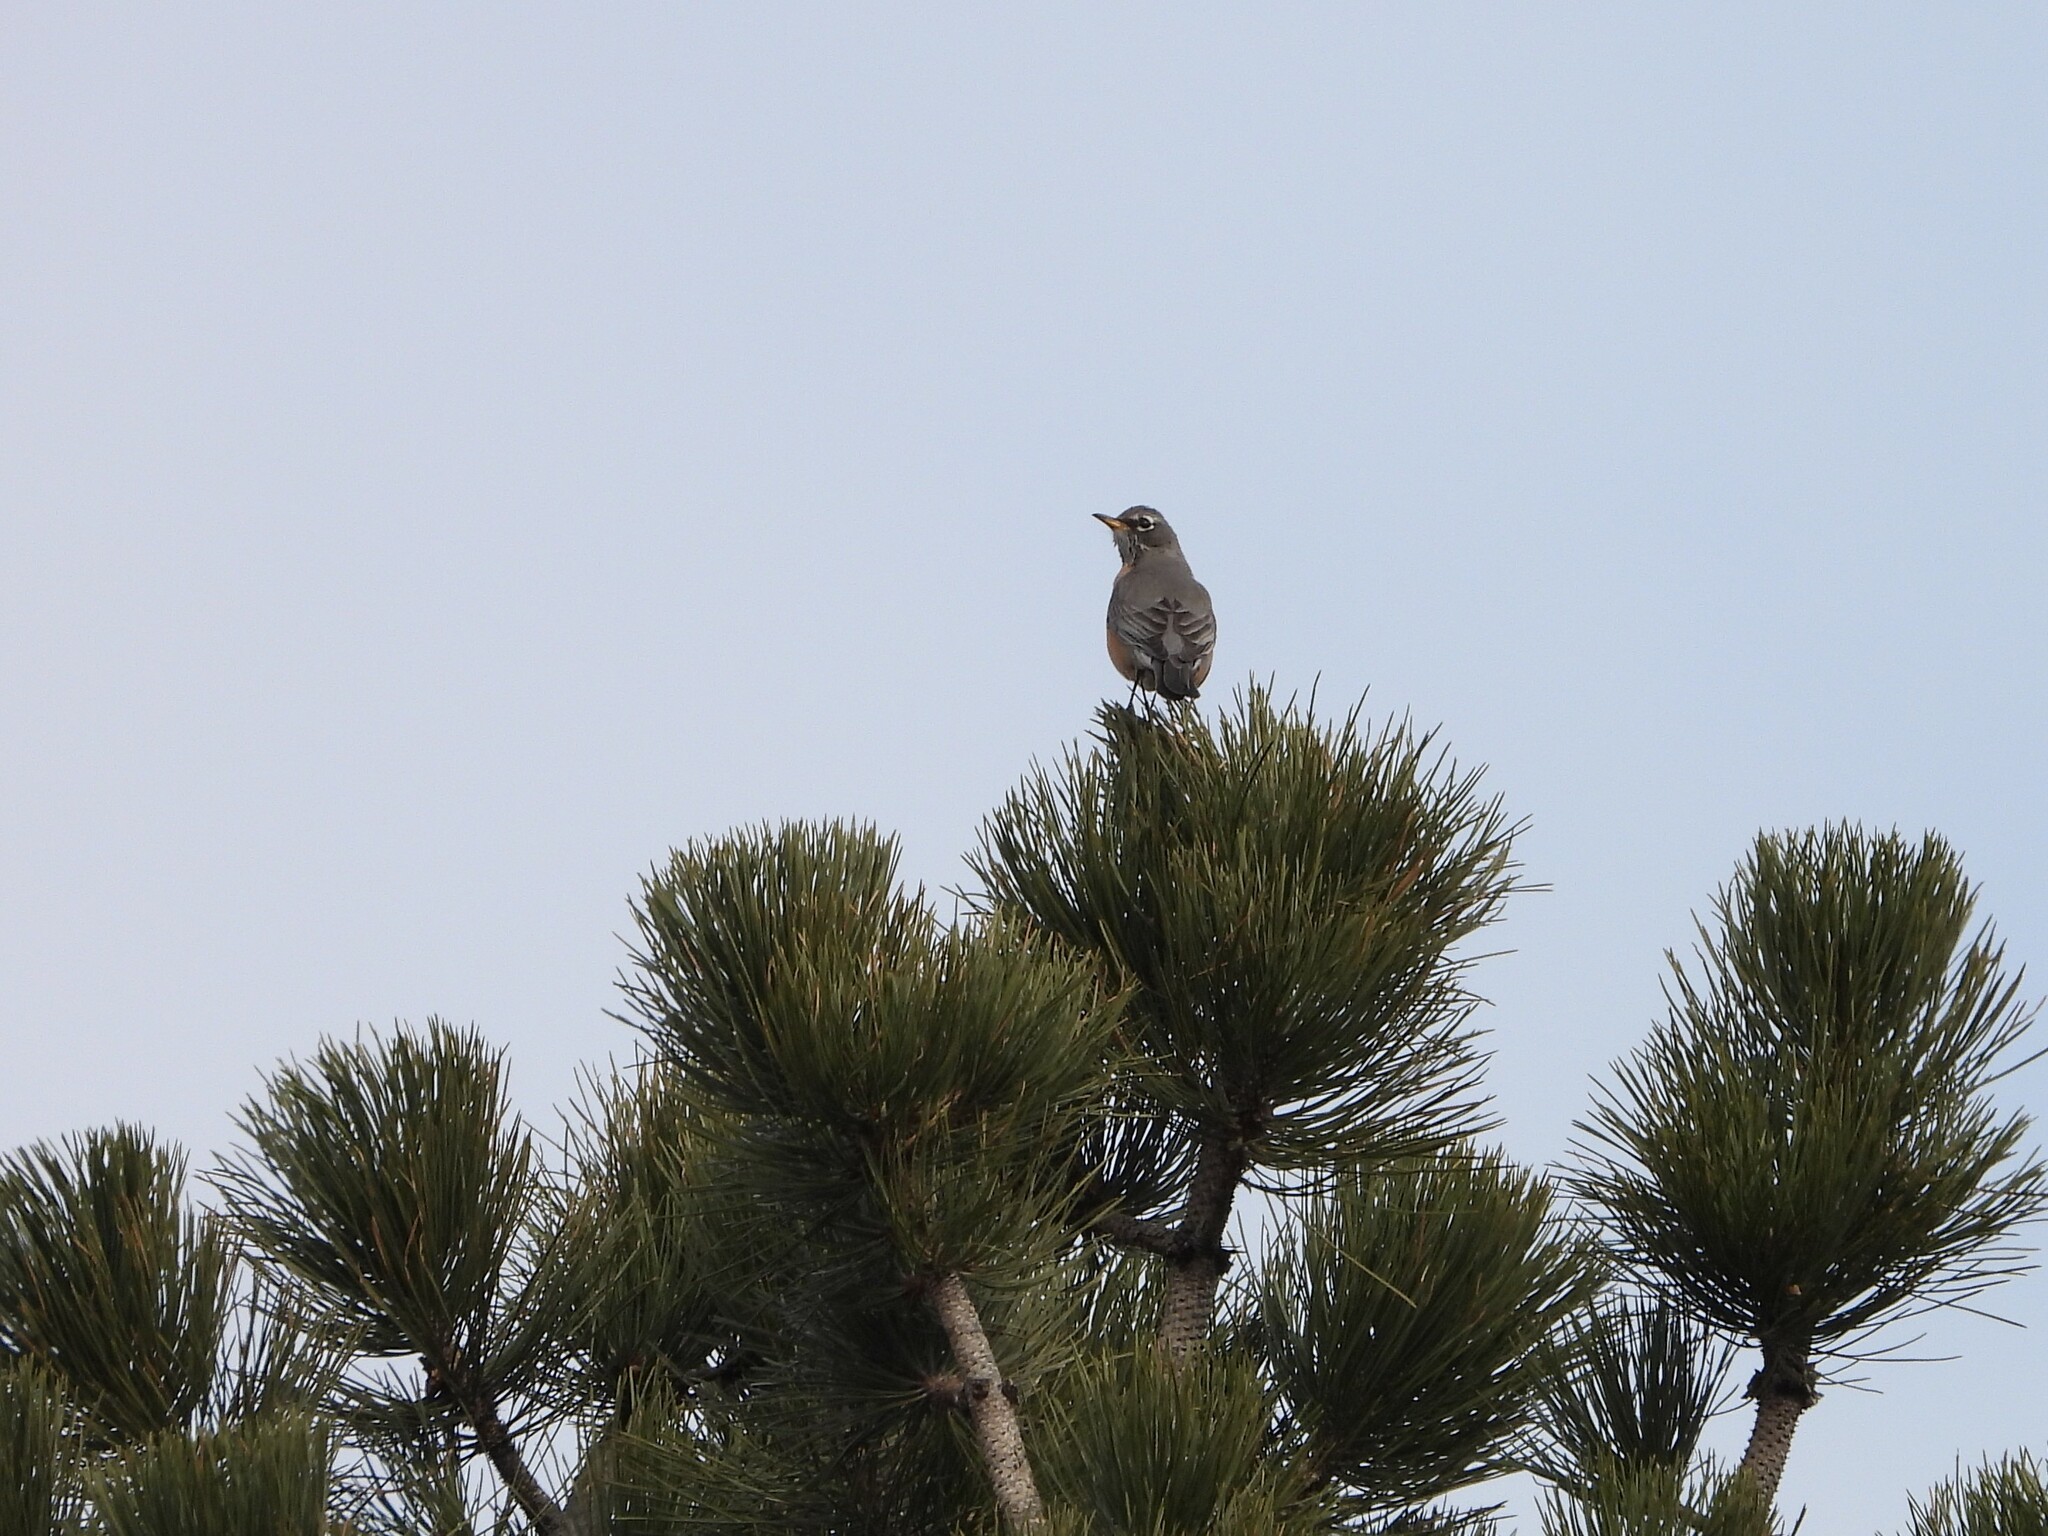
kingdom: Animalia
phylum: Chordata
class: Aves
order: Passeriformes
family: Turdidae
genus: Turdus
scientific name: Turdus migratorius
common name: American robin
